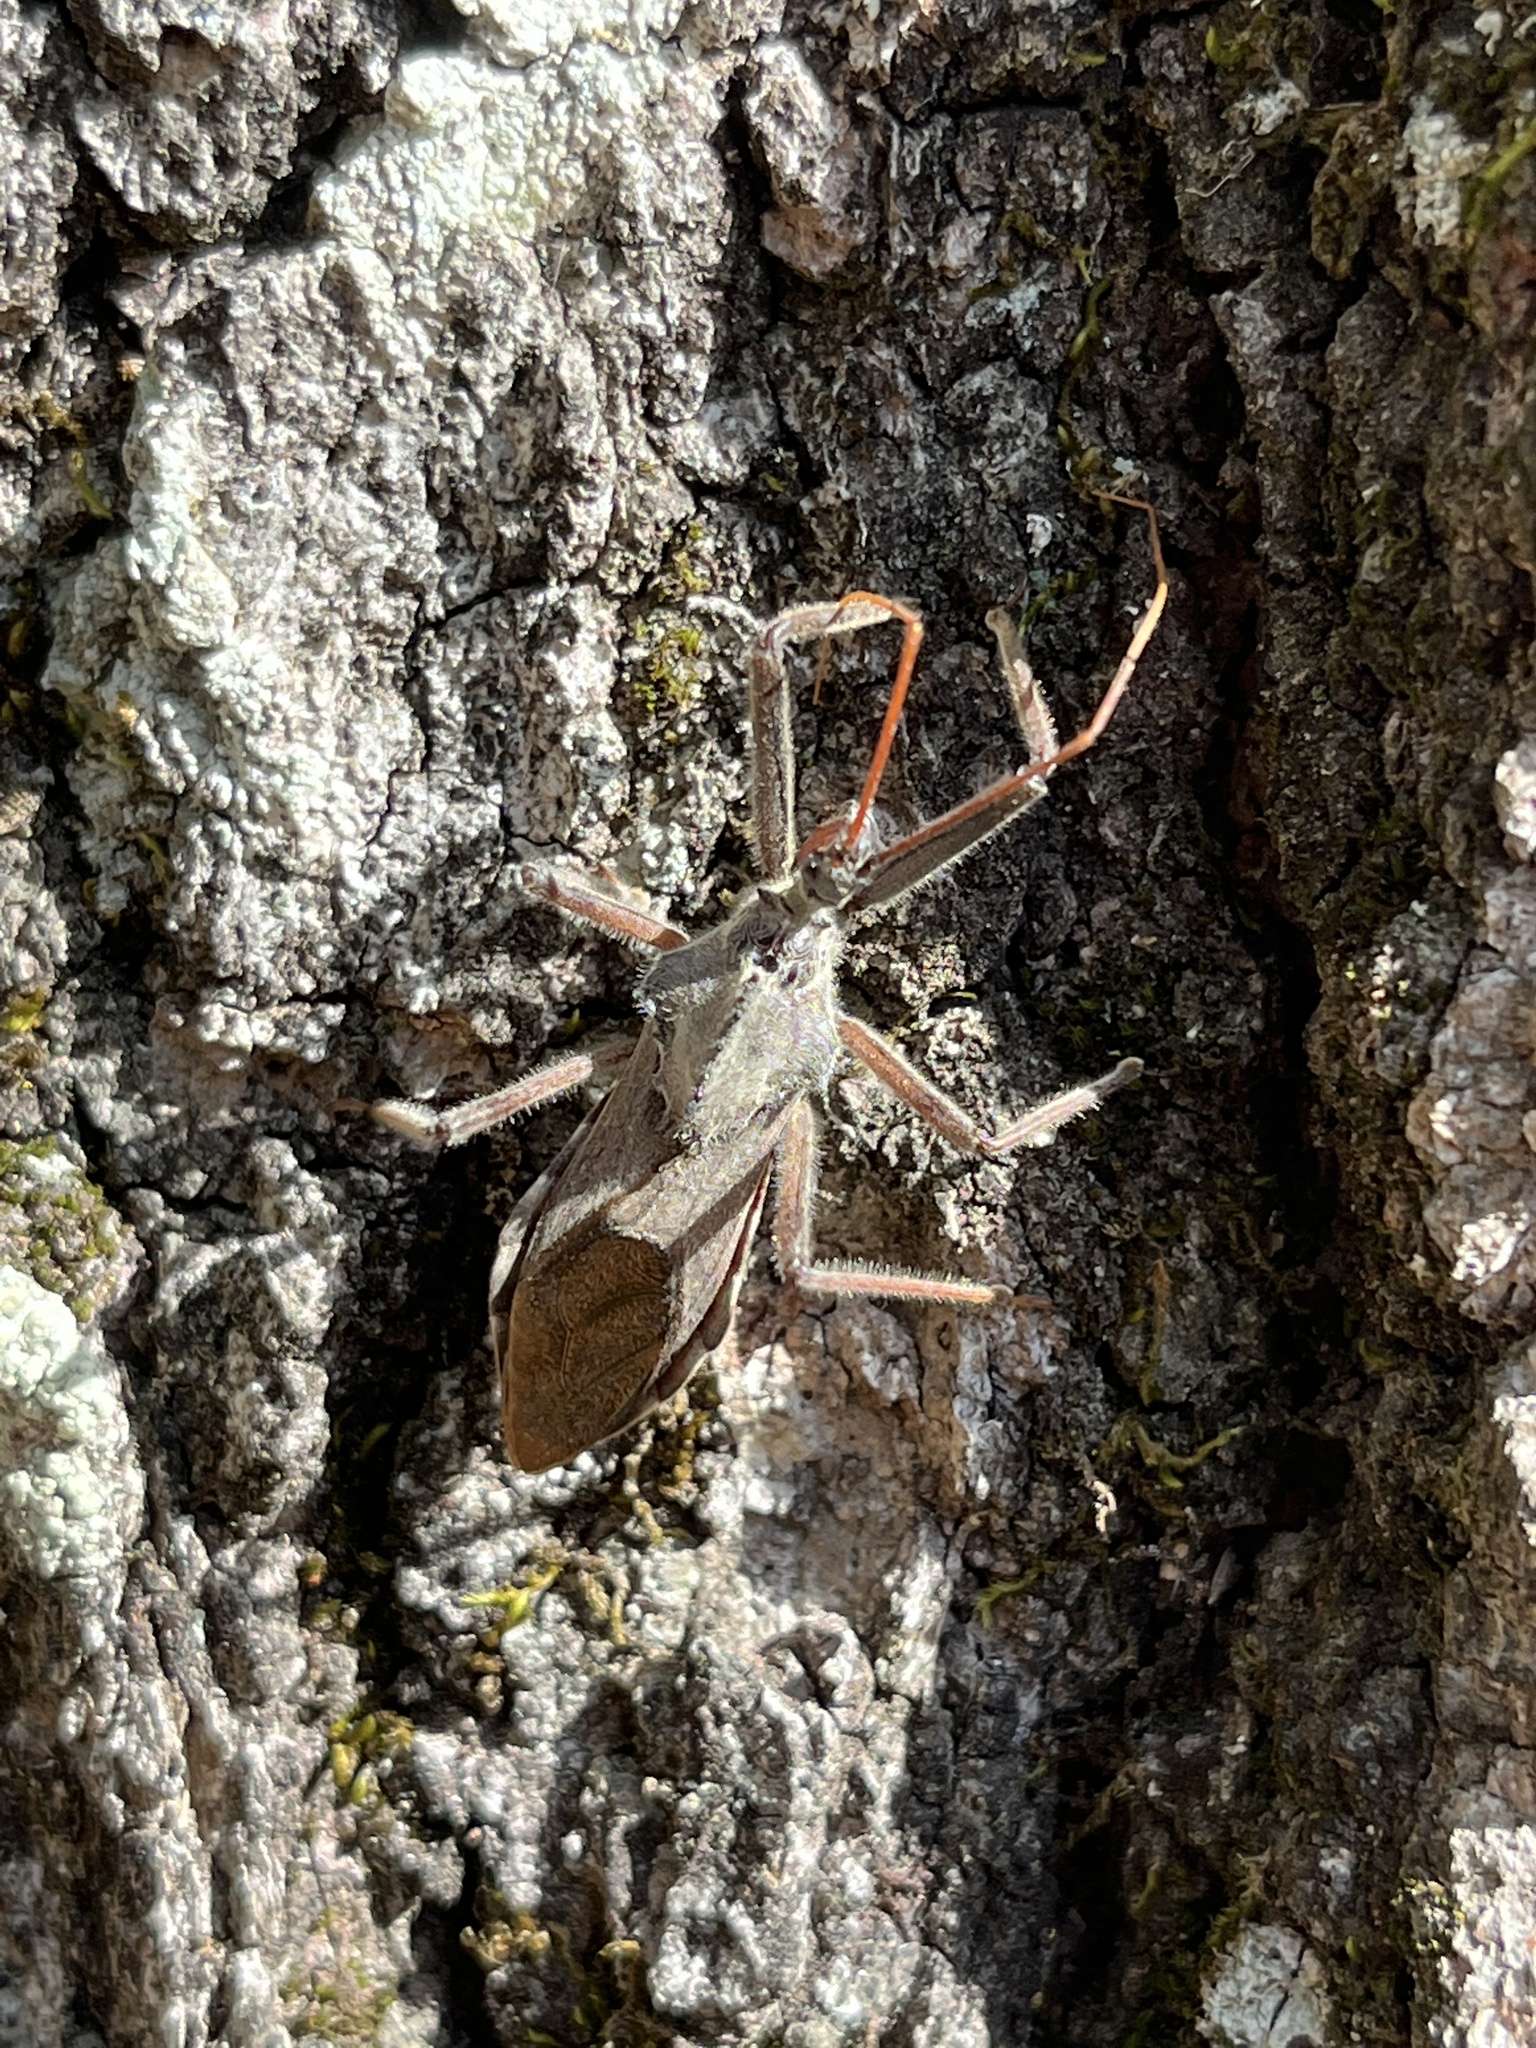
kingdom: Animalia
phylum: Arthropoda
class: Insecta
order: Hemiptera
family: Reduviidae
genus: Arilus
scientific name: Arilus cristatus
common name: North american wheel bug
